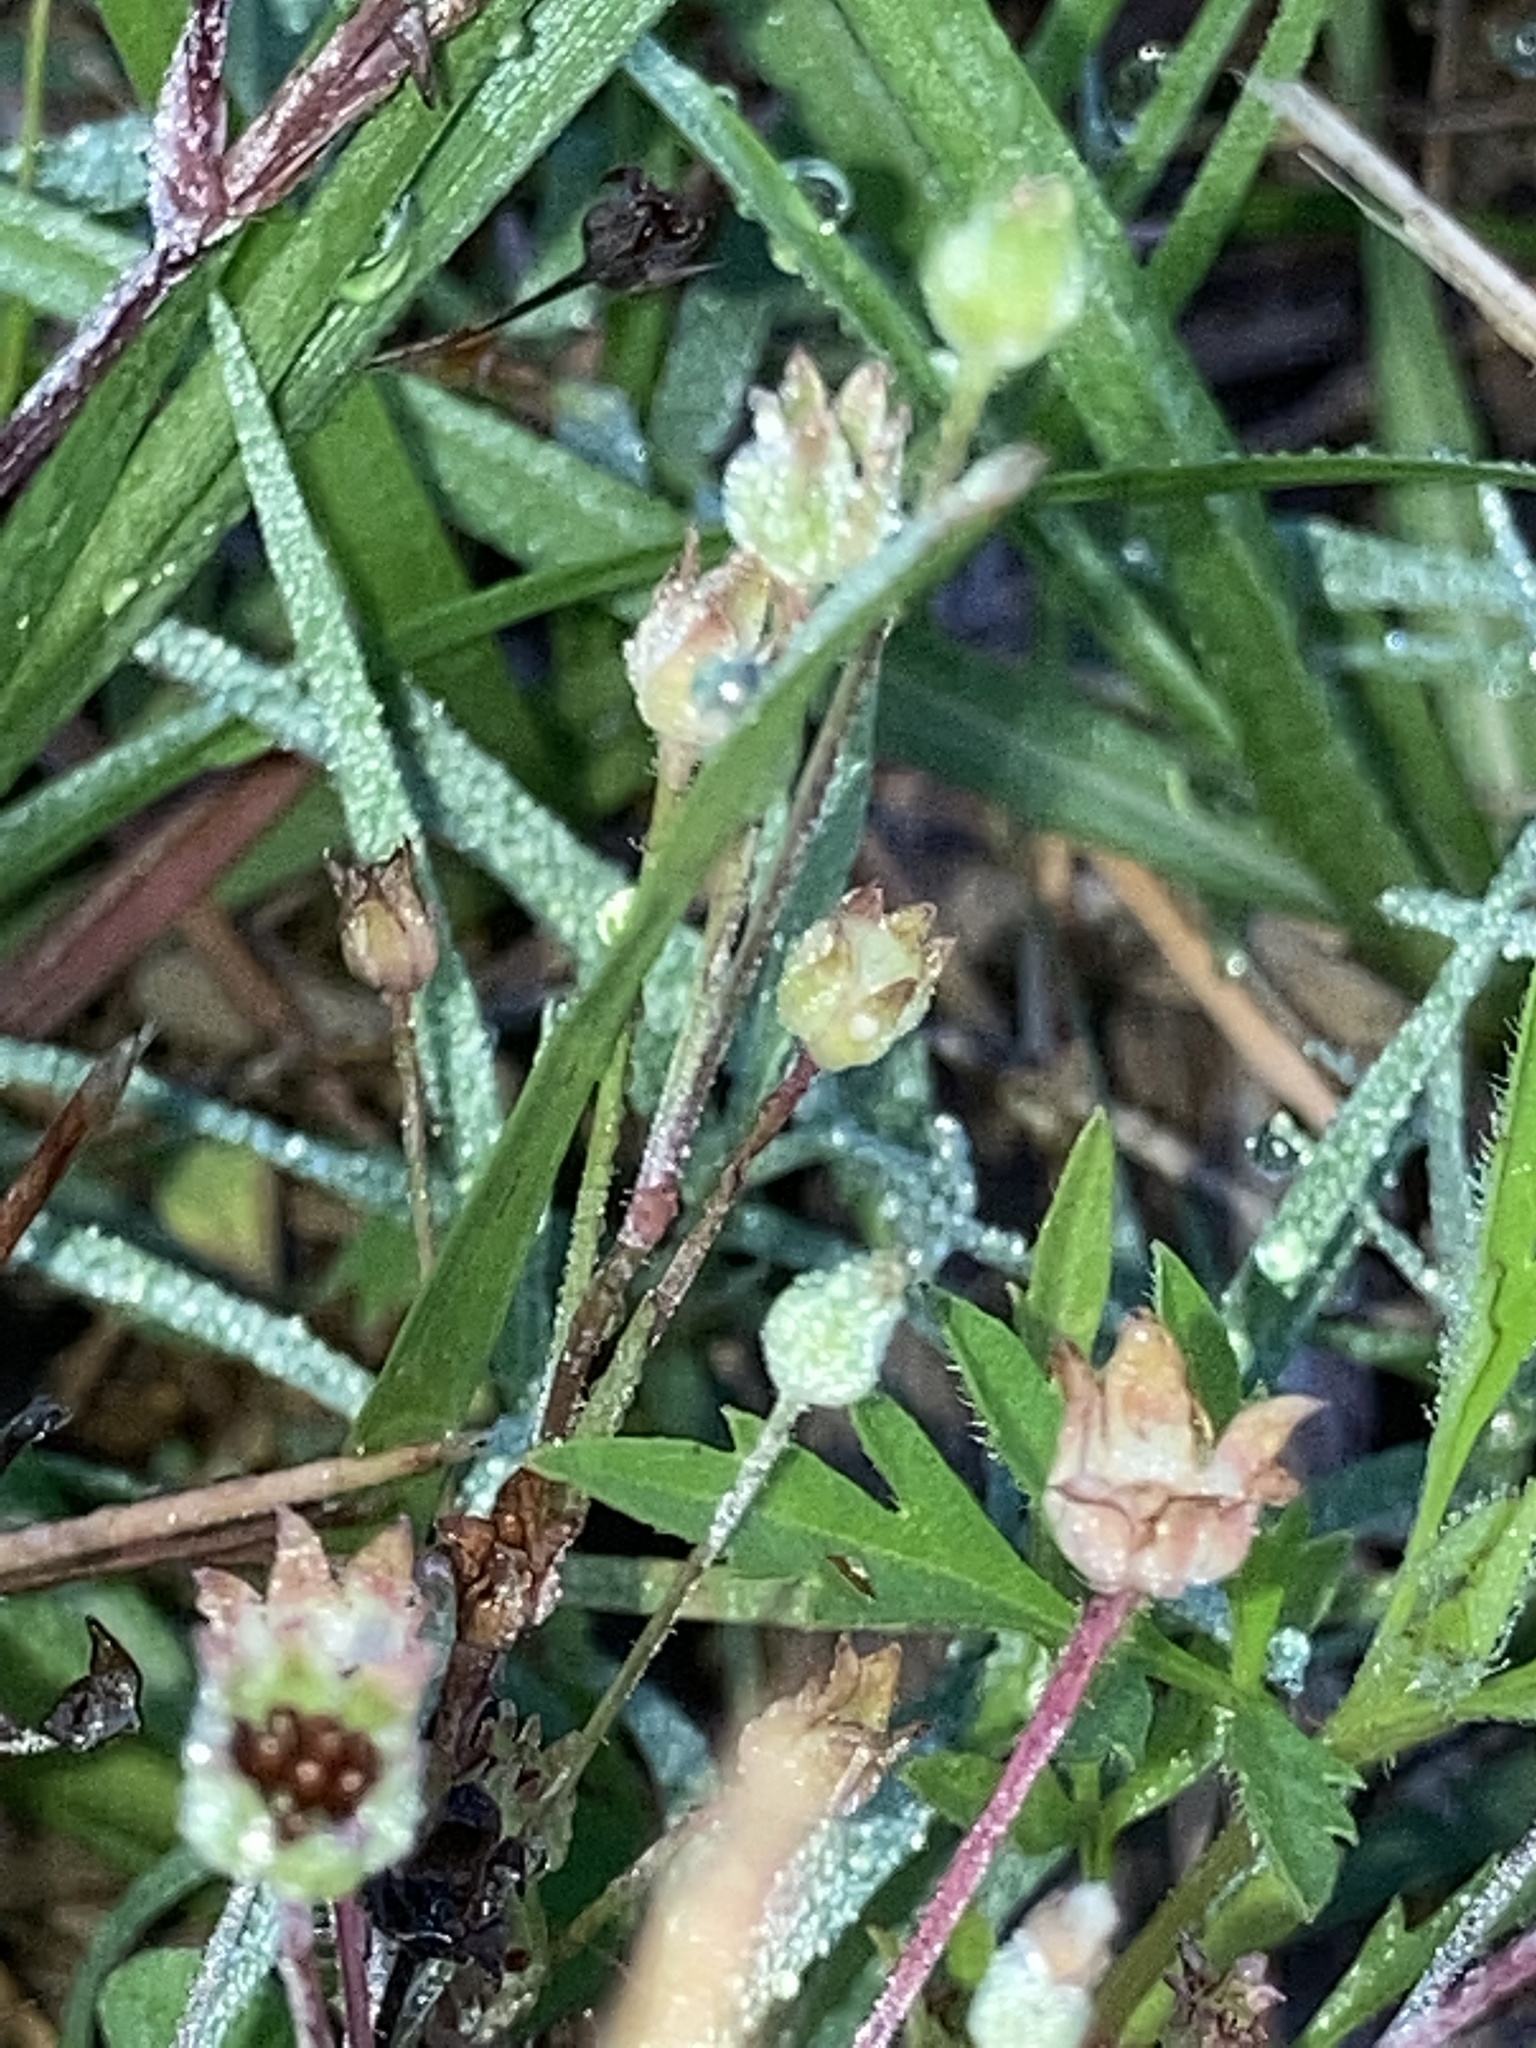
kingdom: Plantae
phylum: Tracheophyta
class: Magnoliopsida
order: Asterales
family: Asteraceae
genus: Krigia
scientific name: Krigia cespitosa
